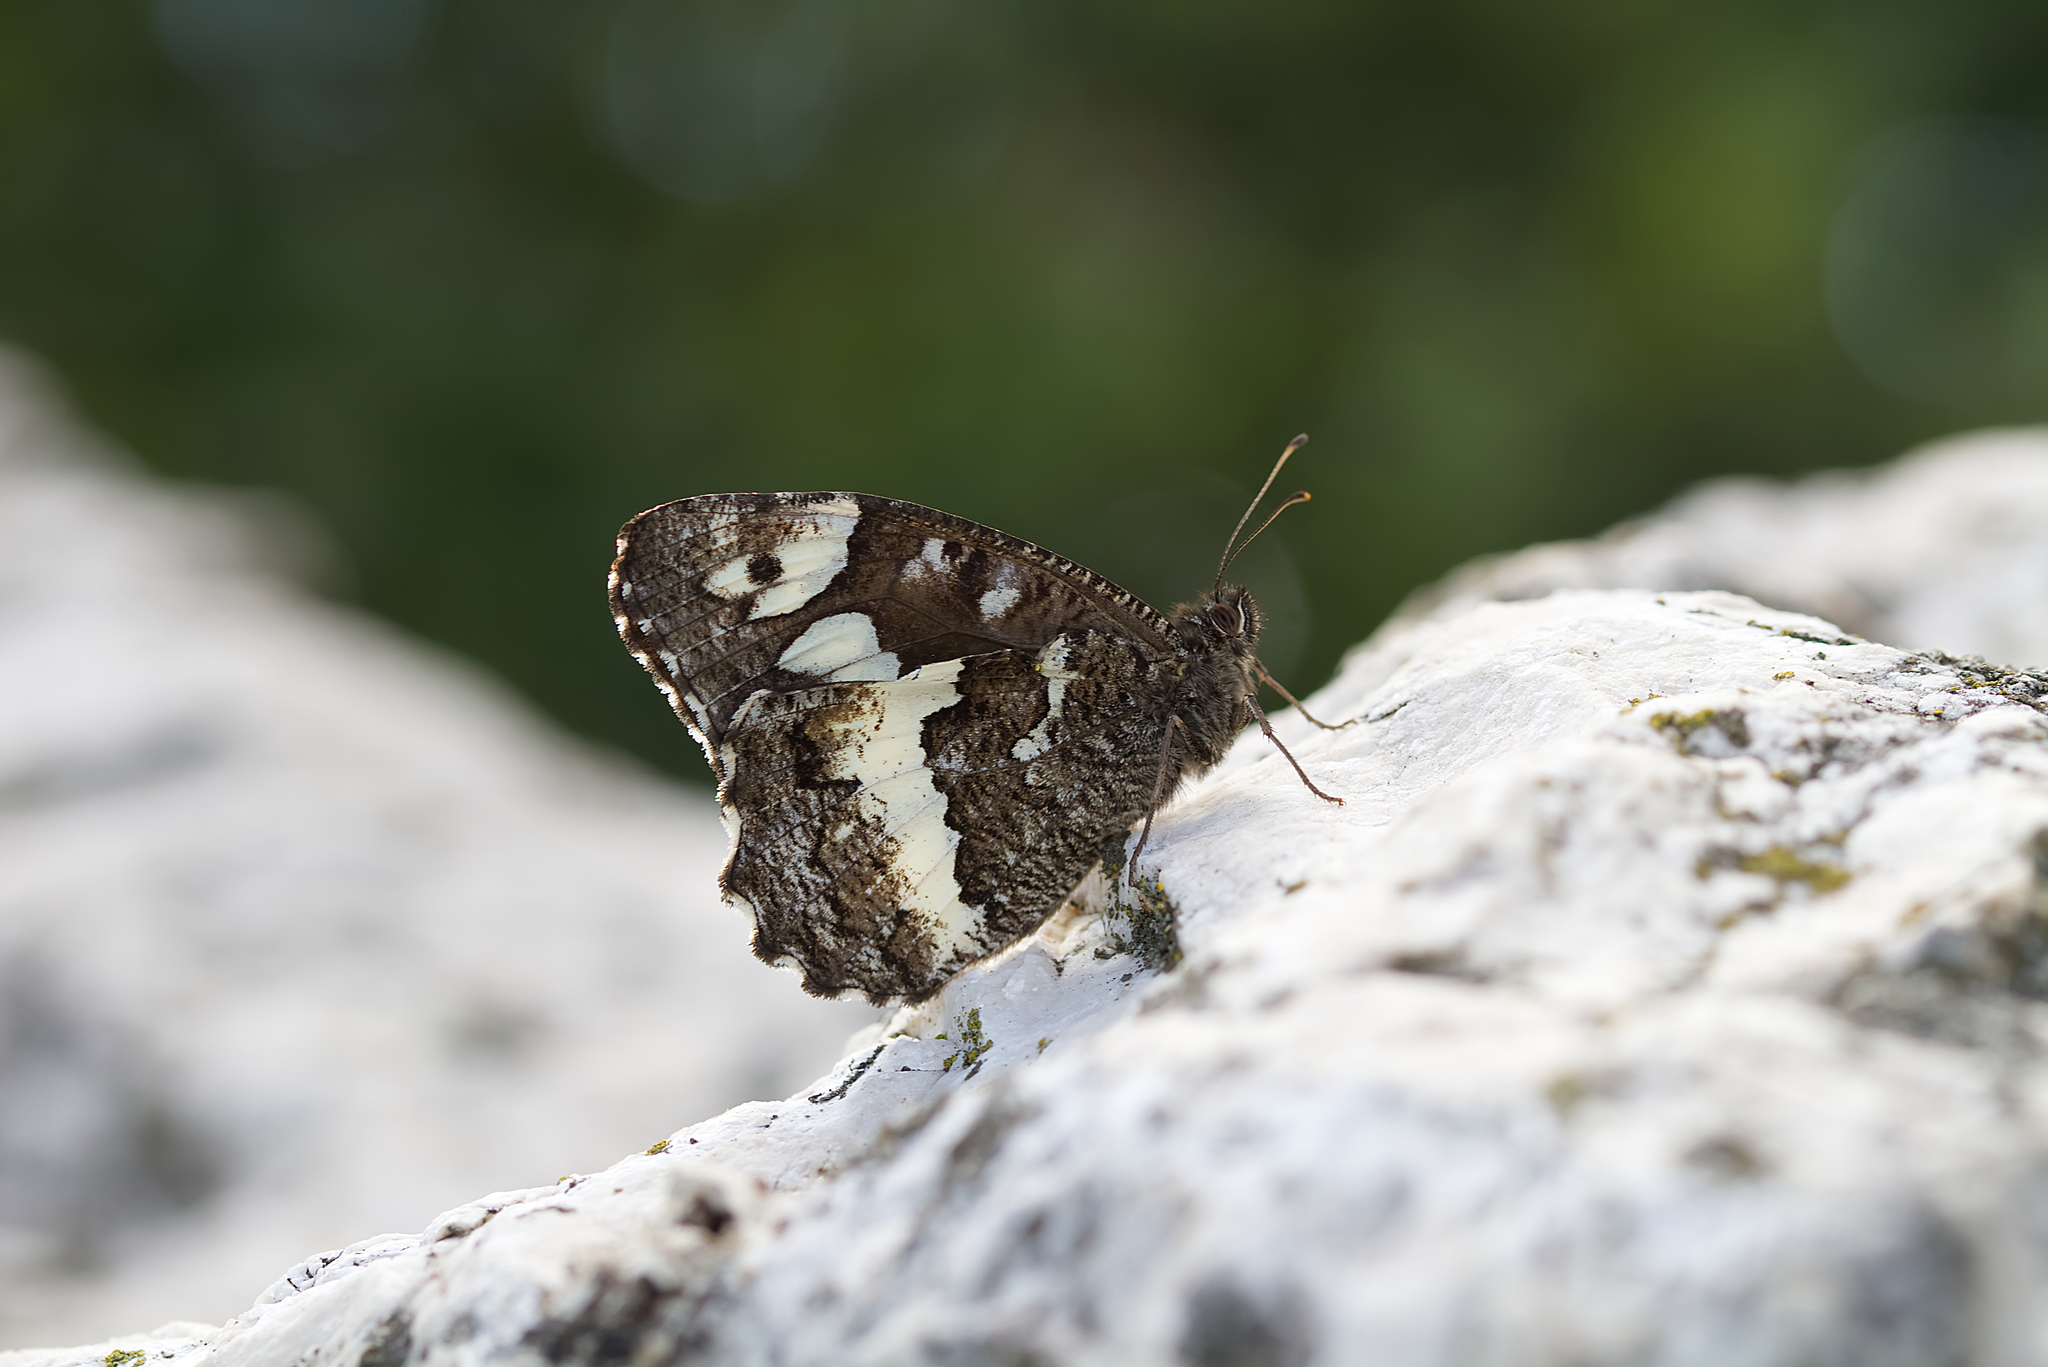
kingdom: Animalia
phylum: Arthropoda
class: Insecta
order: Lepidoptera
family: Lycaenidae
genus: Loweia
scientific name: Loweia tityrus
